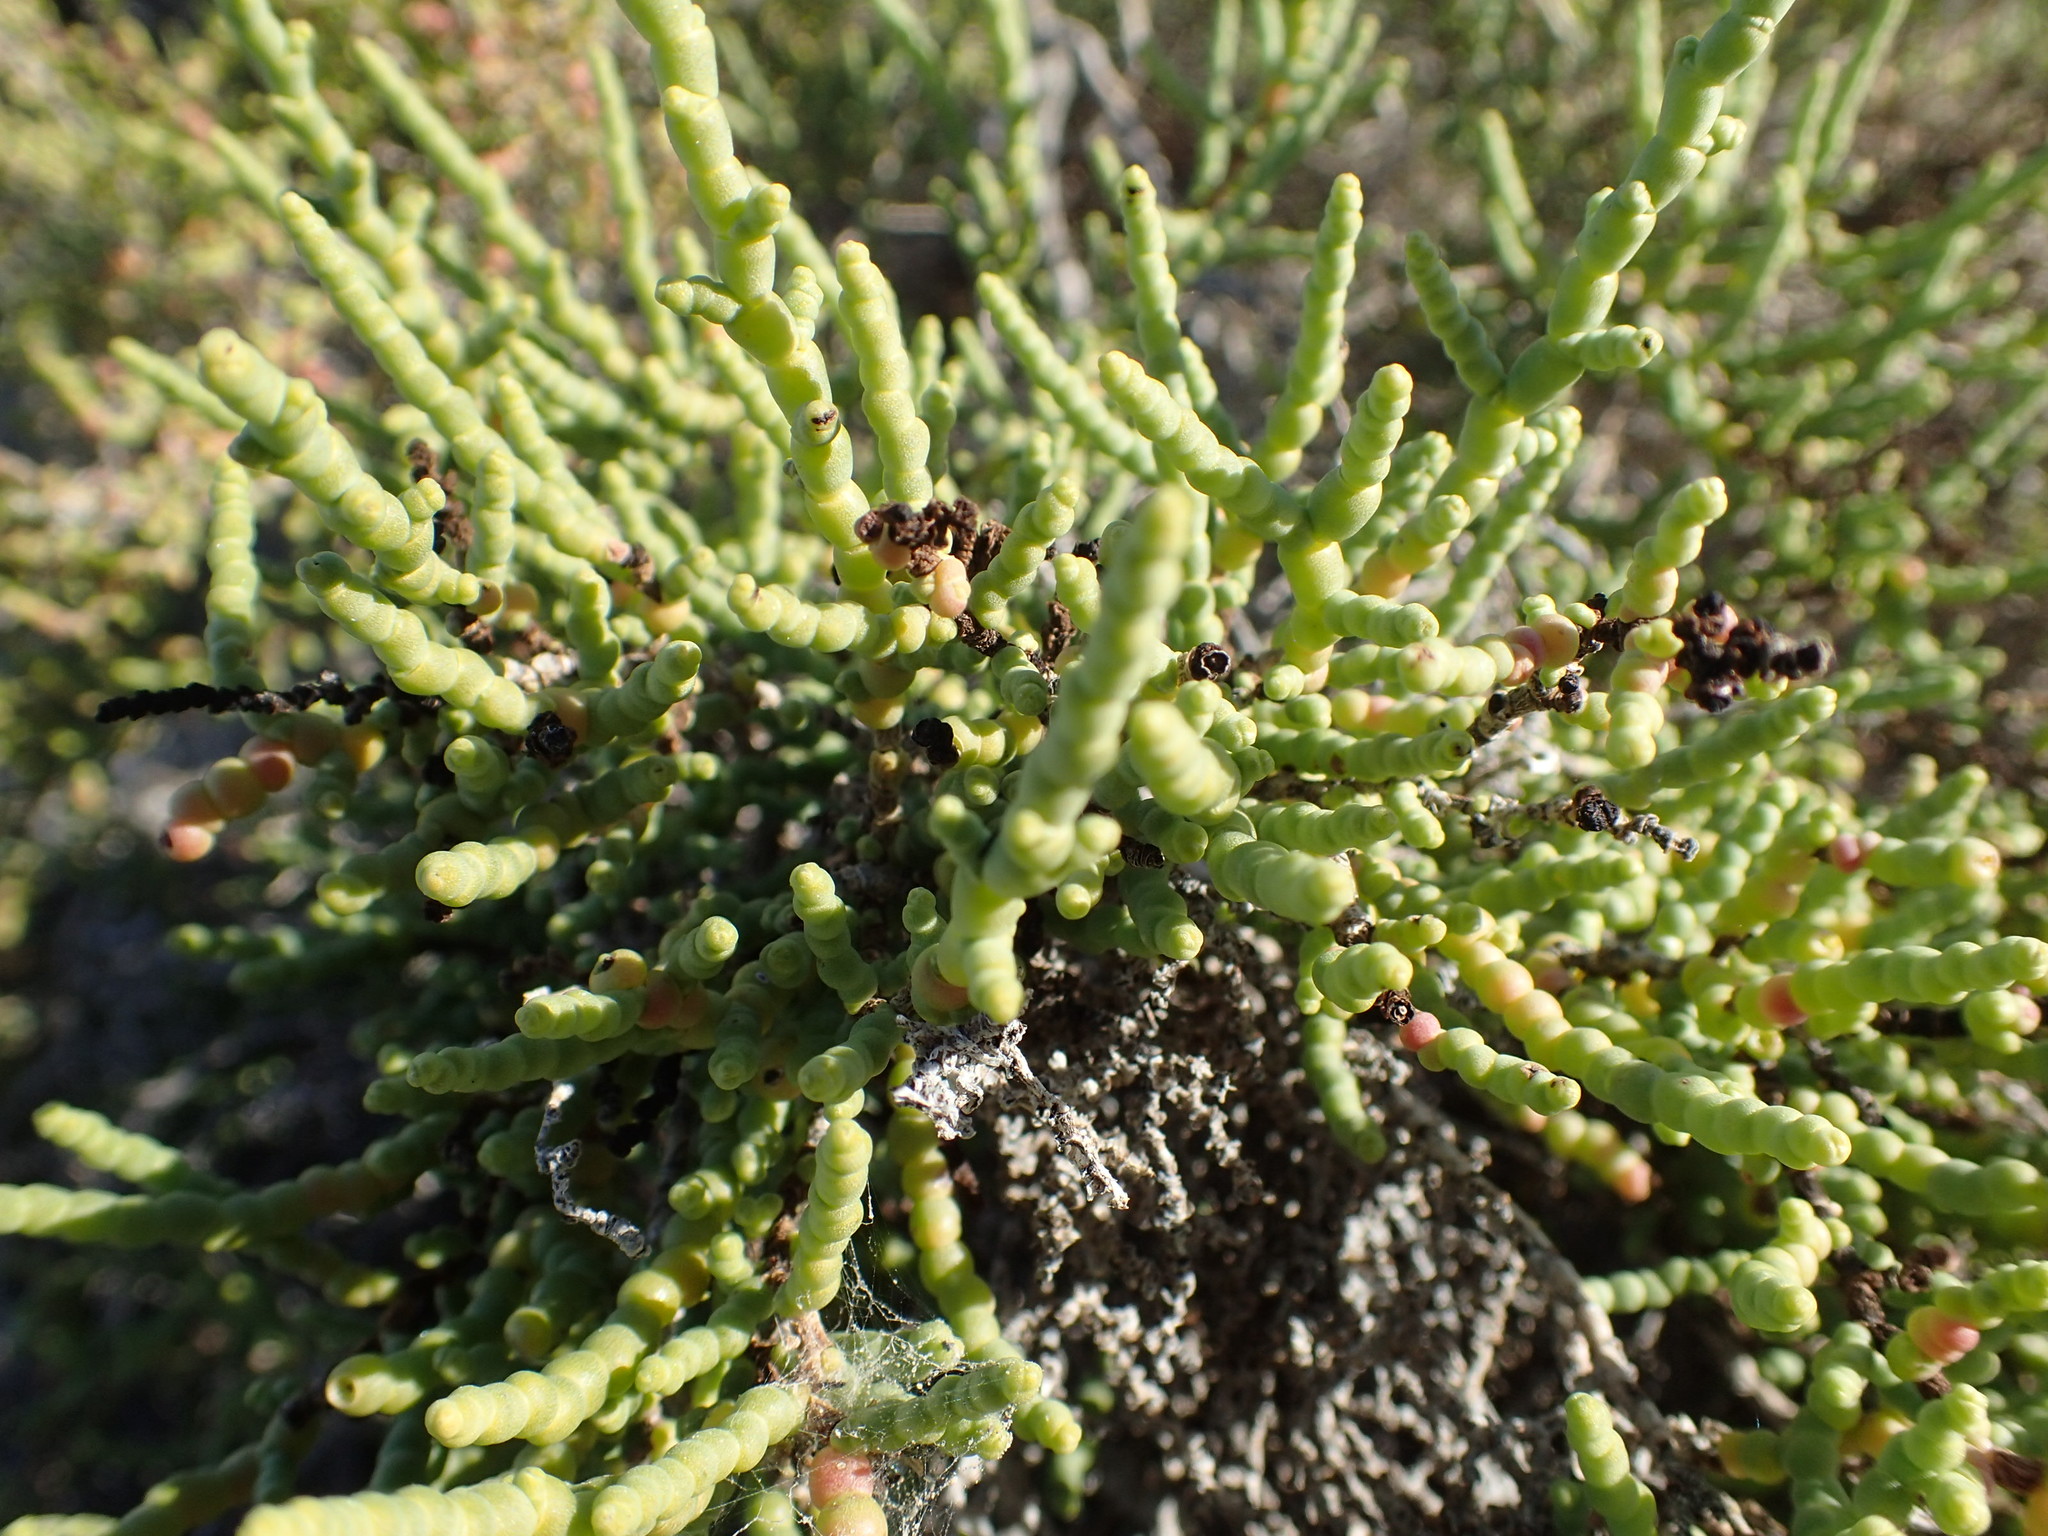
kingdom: Plantae
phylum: Tracheophyta
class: Magnoliopsida
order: Caryophyllales
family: Amaranthaceae
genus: Allenrolfea
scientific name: Allenrolfea occidentalis
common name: Iodine-bush
